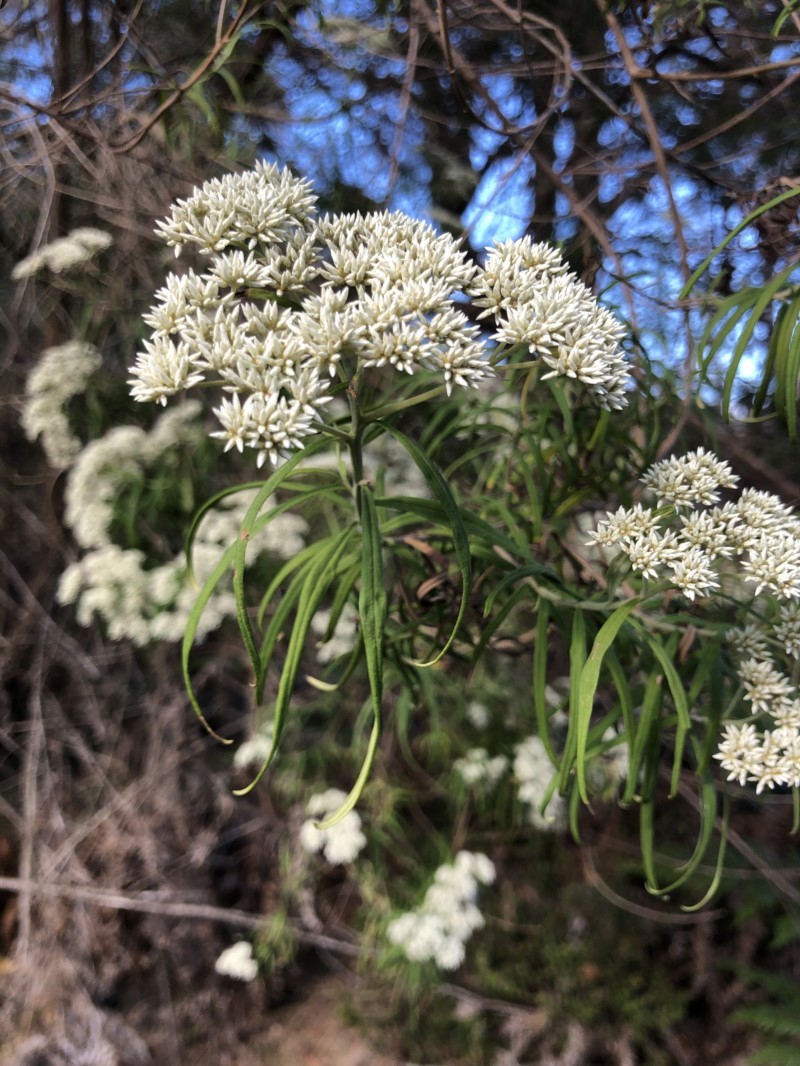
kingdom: Plantae
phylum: Tracheophyta
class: Magnoliopsida
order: Asterales
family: Asteraceae
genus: Cassinia
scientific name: Cassinia longifolia
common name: Longleaf-dogwood
